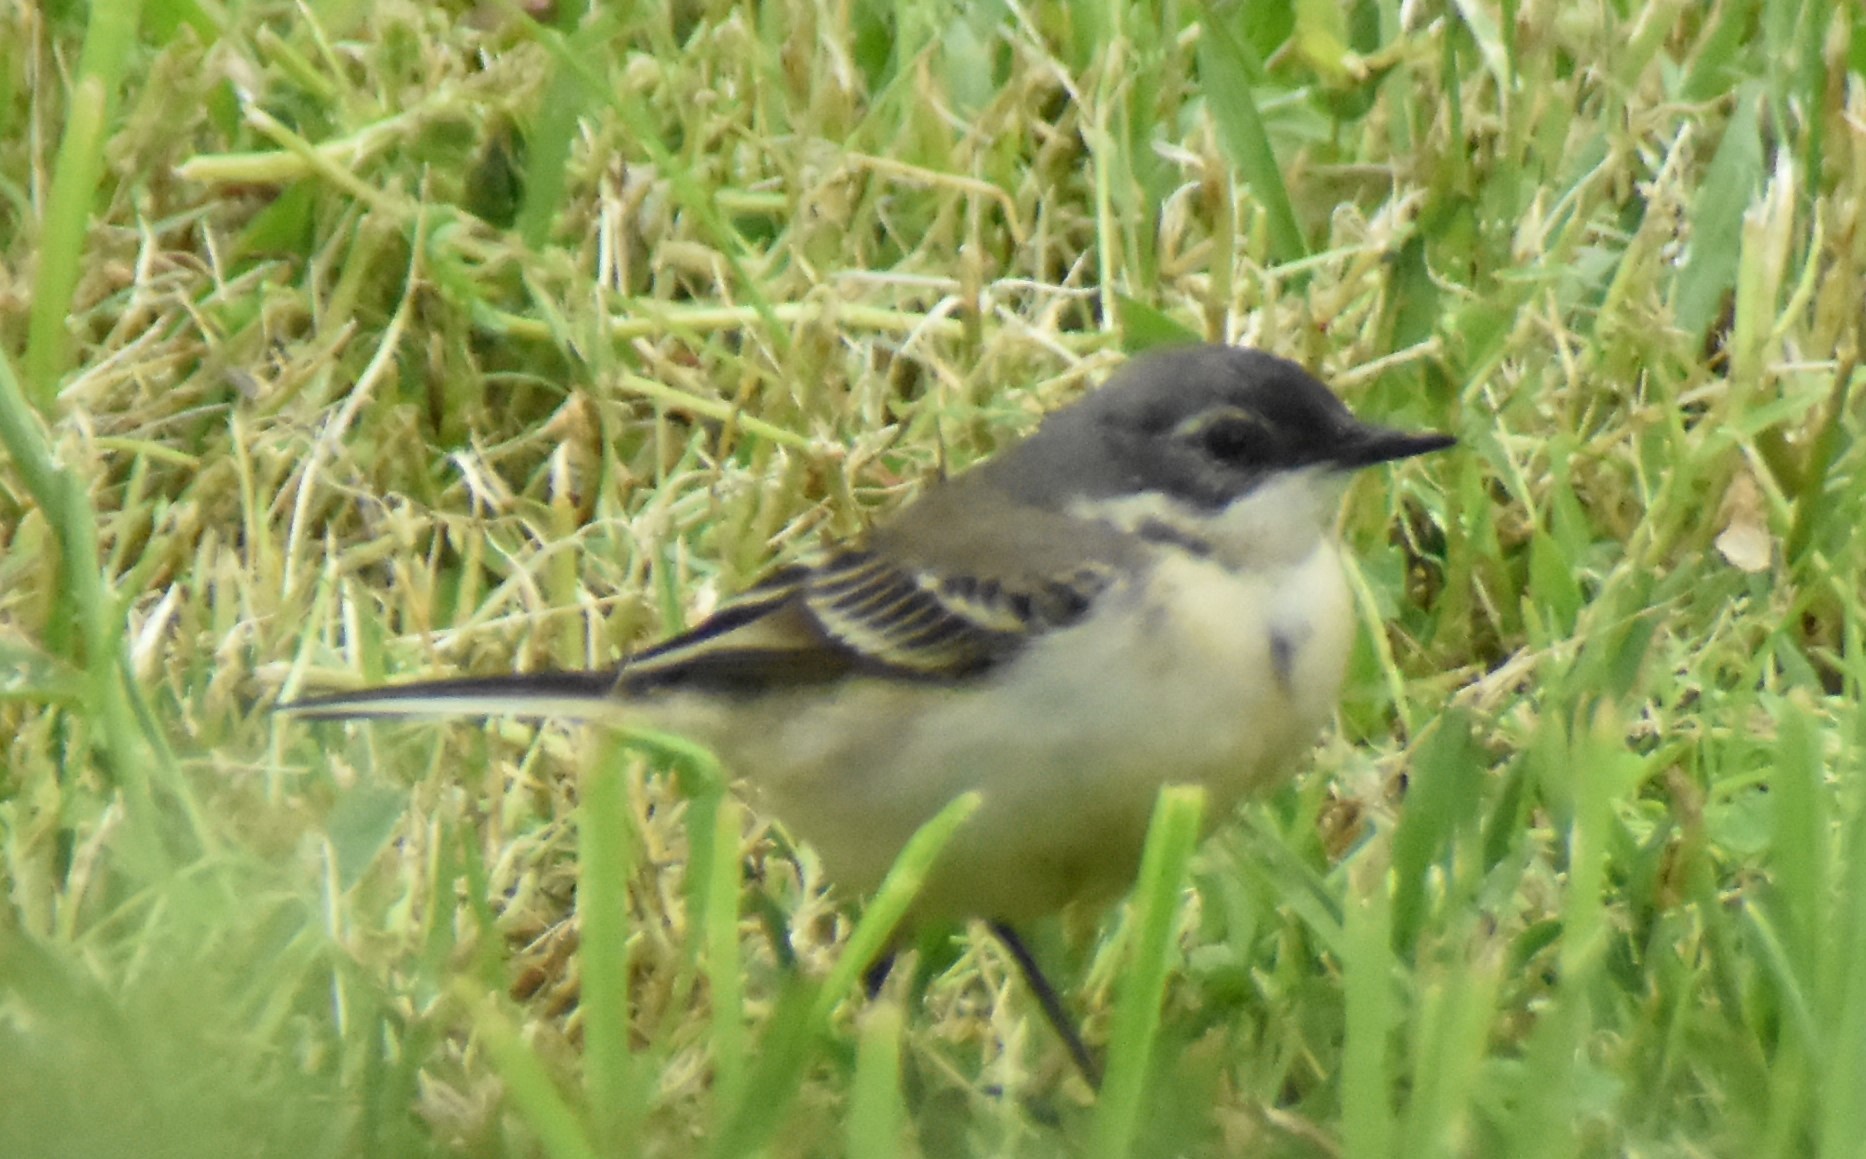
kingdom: Animalia
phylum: Chordata
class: Aves
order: Passeriformes
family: Motacillidae
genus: Motacilla
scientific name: Motacilla flava
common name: Western yellow wagtail
